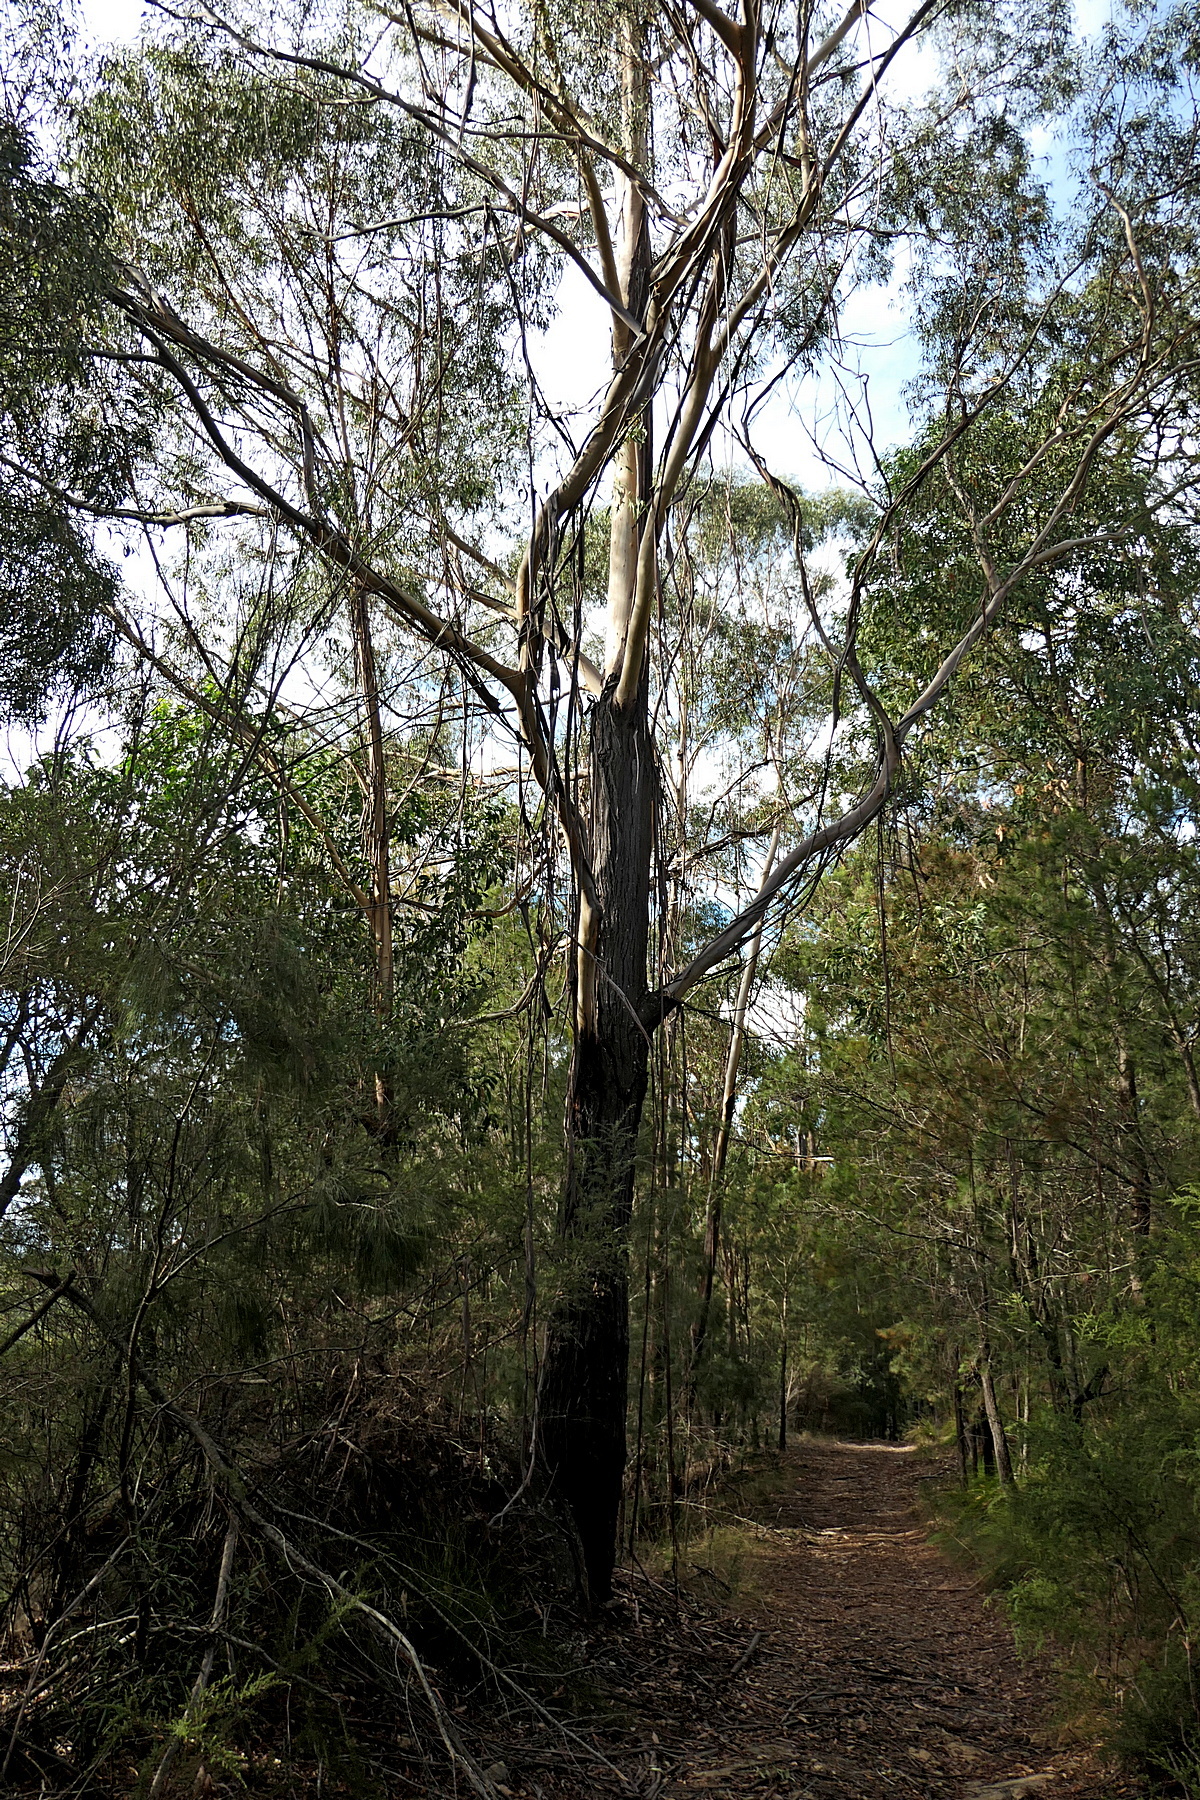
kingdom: Plantae
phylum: Tracheophyta
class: Magnoliopsida
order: Myrtales
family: Myrtaceae
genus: Eucalyptus
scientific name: Eucalyptus smithii
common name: Blackbutt-peppermint
